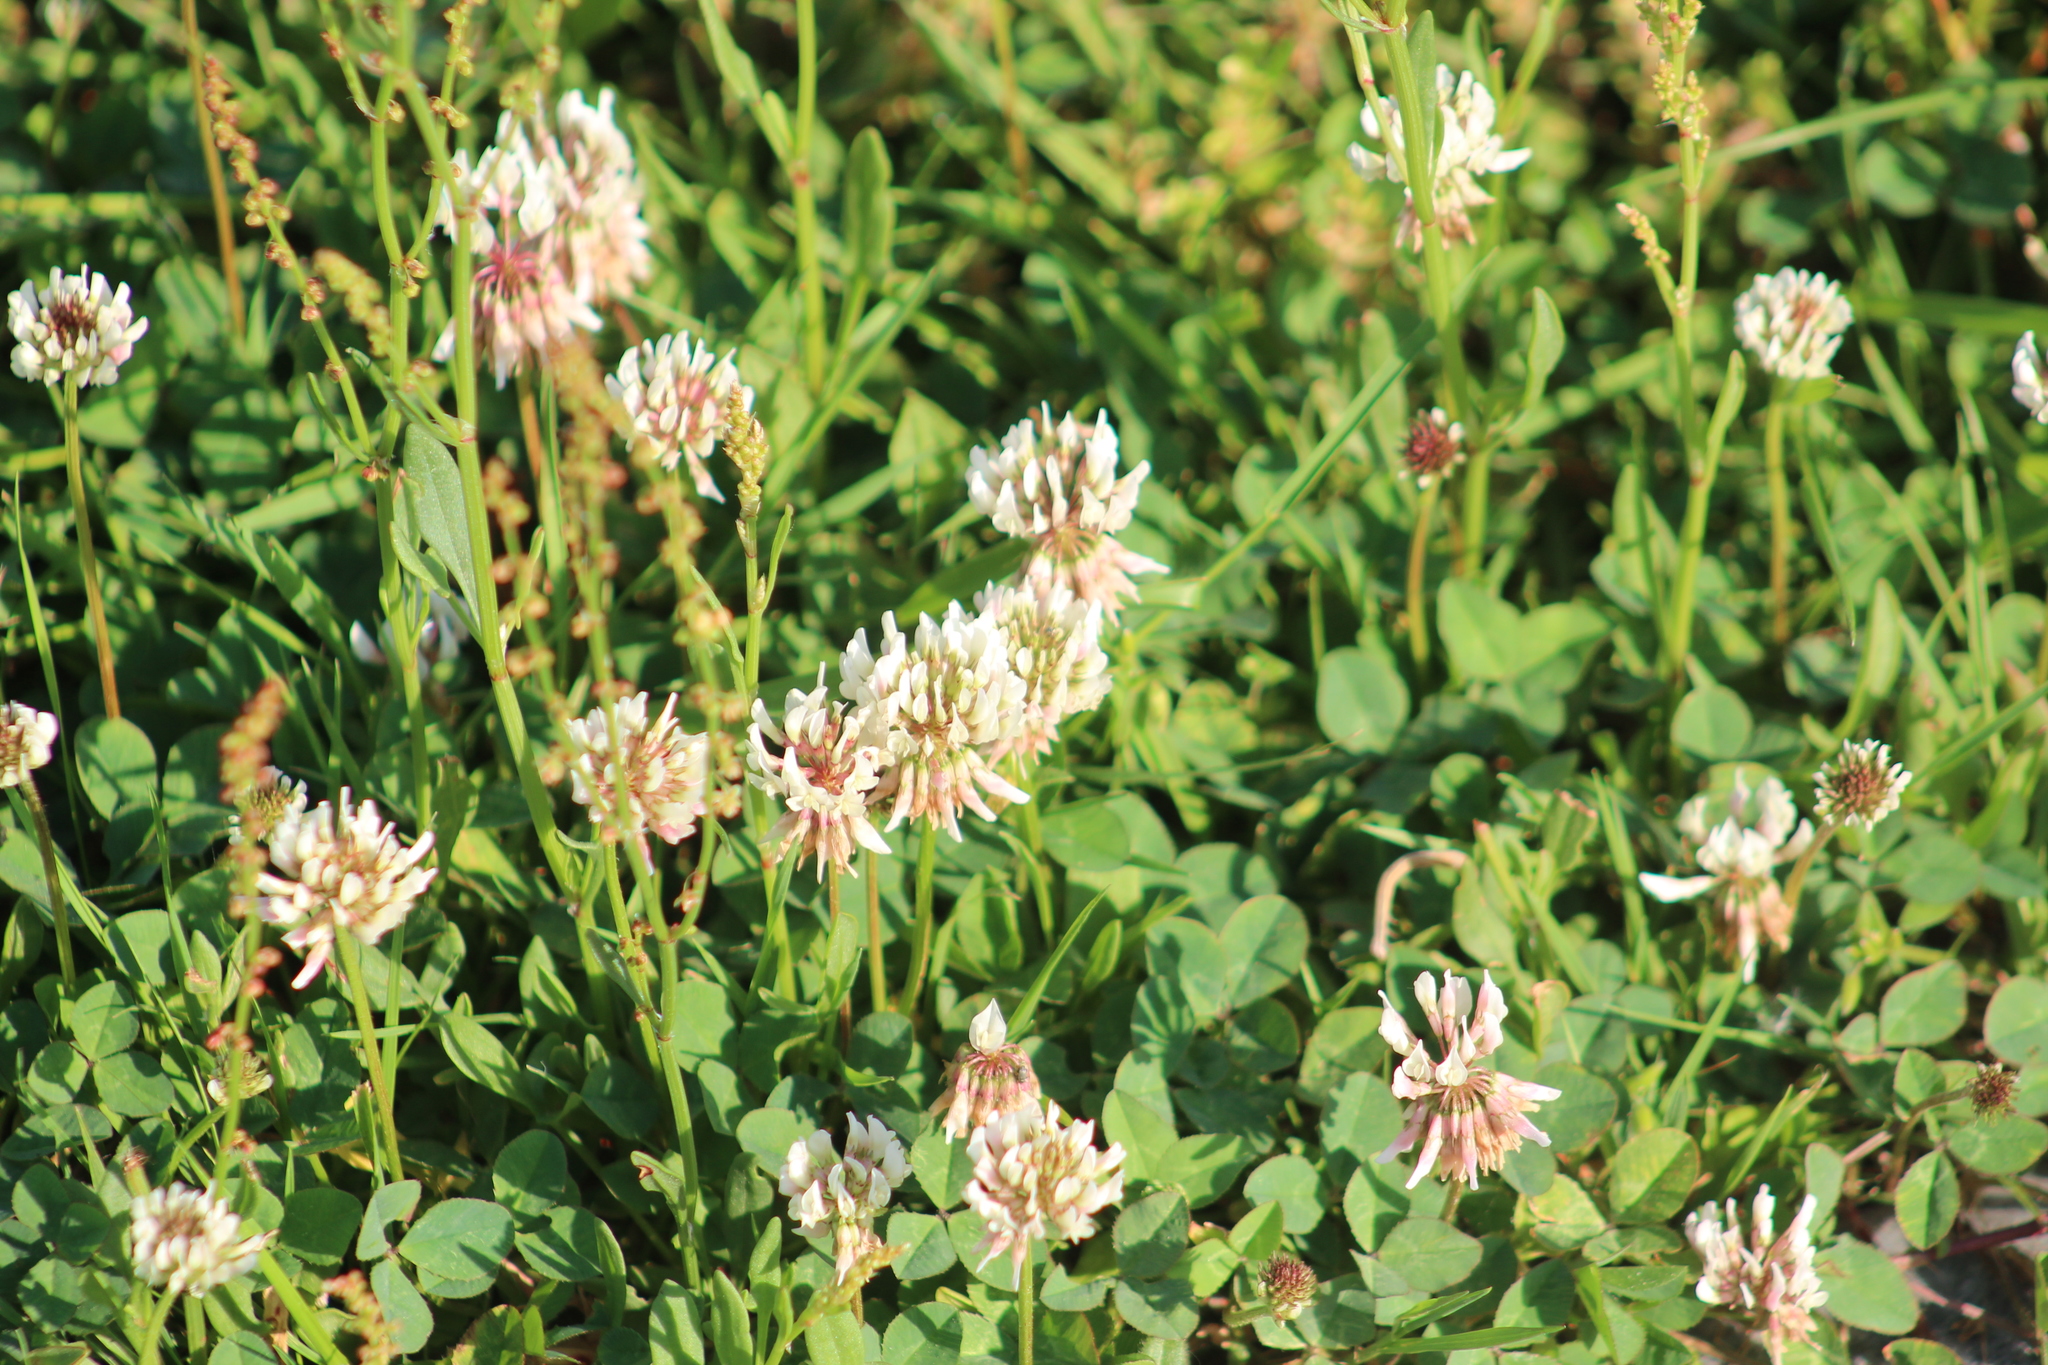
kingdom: Plantae
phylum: Tracheophyta
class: Magnoliopsida
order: Fabales
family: Fabaceae
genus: Trifolium
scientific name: Trifolium repens
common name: White clover
